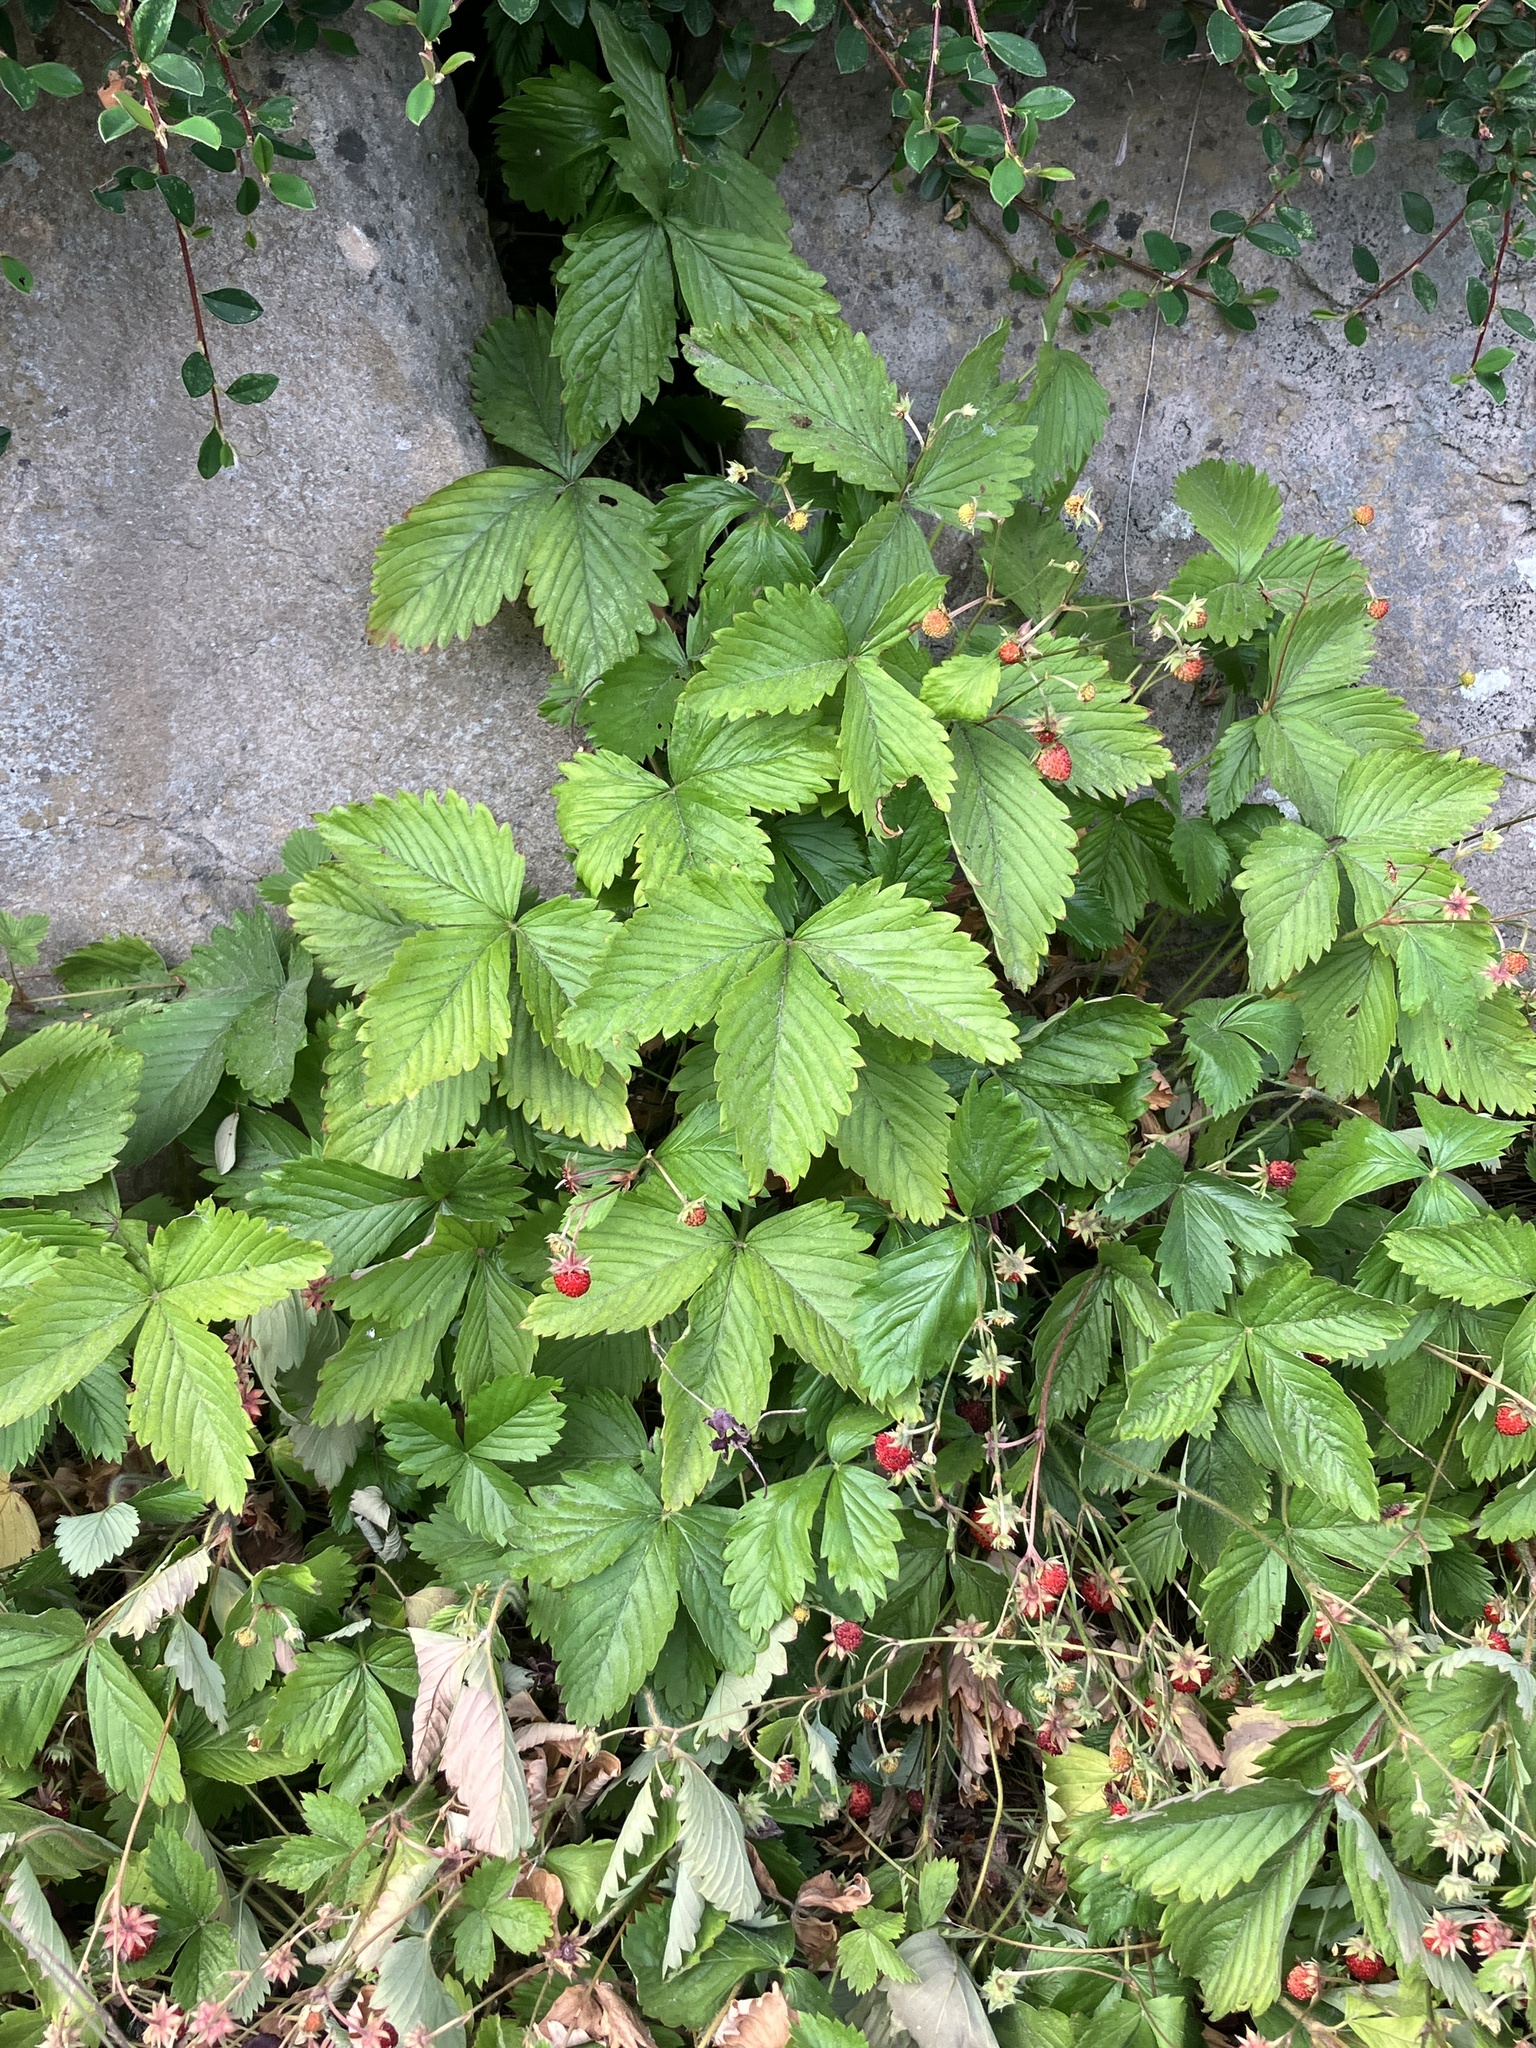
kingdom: Plantae
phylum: Tracheophyta
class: Magnoliopsida
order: Rosales
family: Rosaceae
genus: Fragaria
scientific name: Fragaria vesca
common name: Wild strawberry
